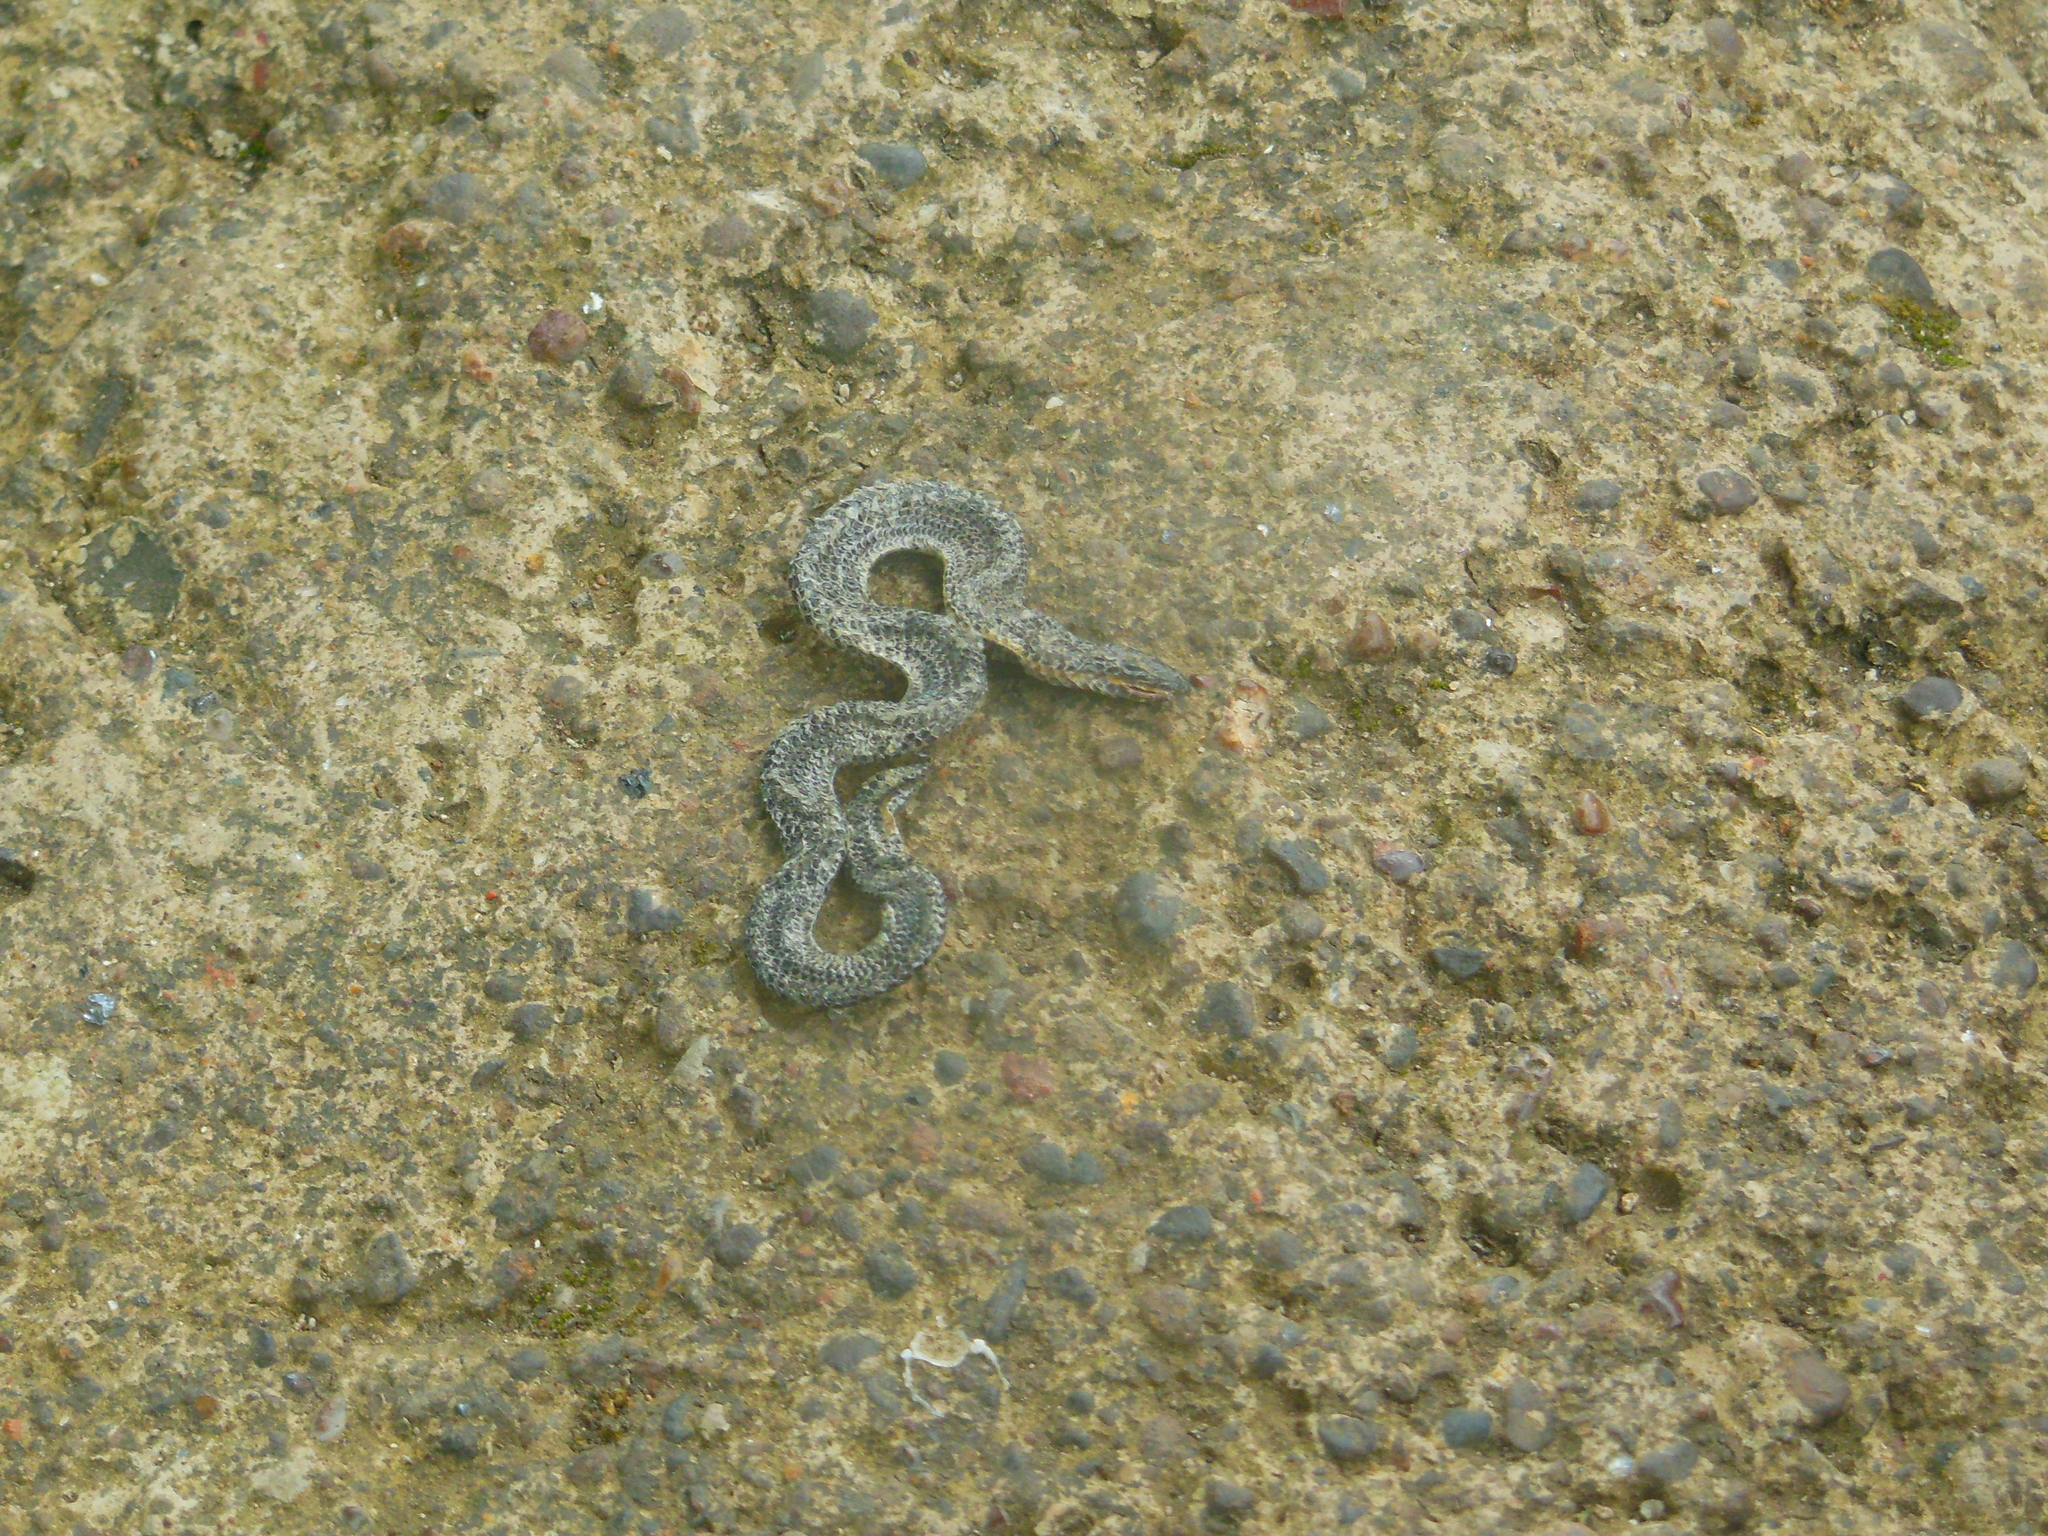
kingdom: Animalia
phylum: Chordata
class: Squamata
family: Uropeltidae
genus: Uropeltis
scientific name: Uropeltis
